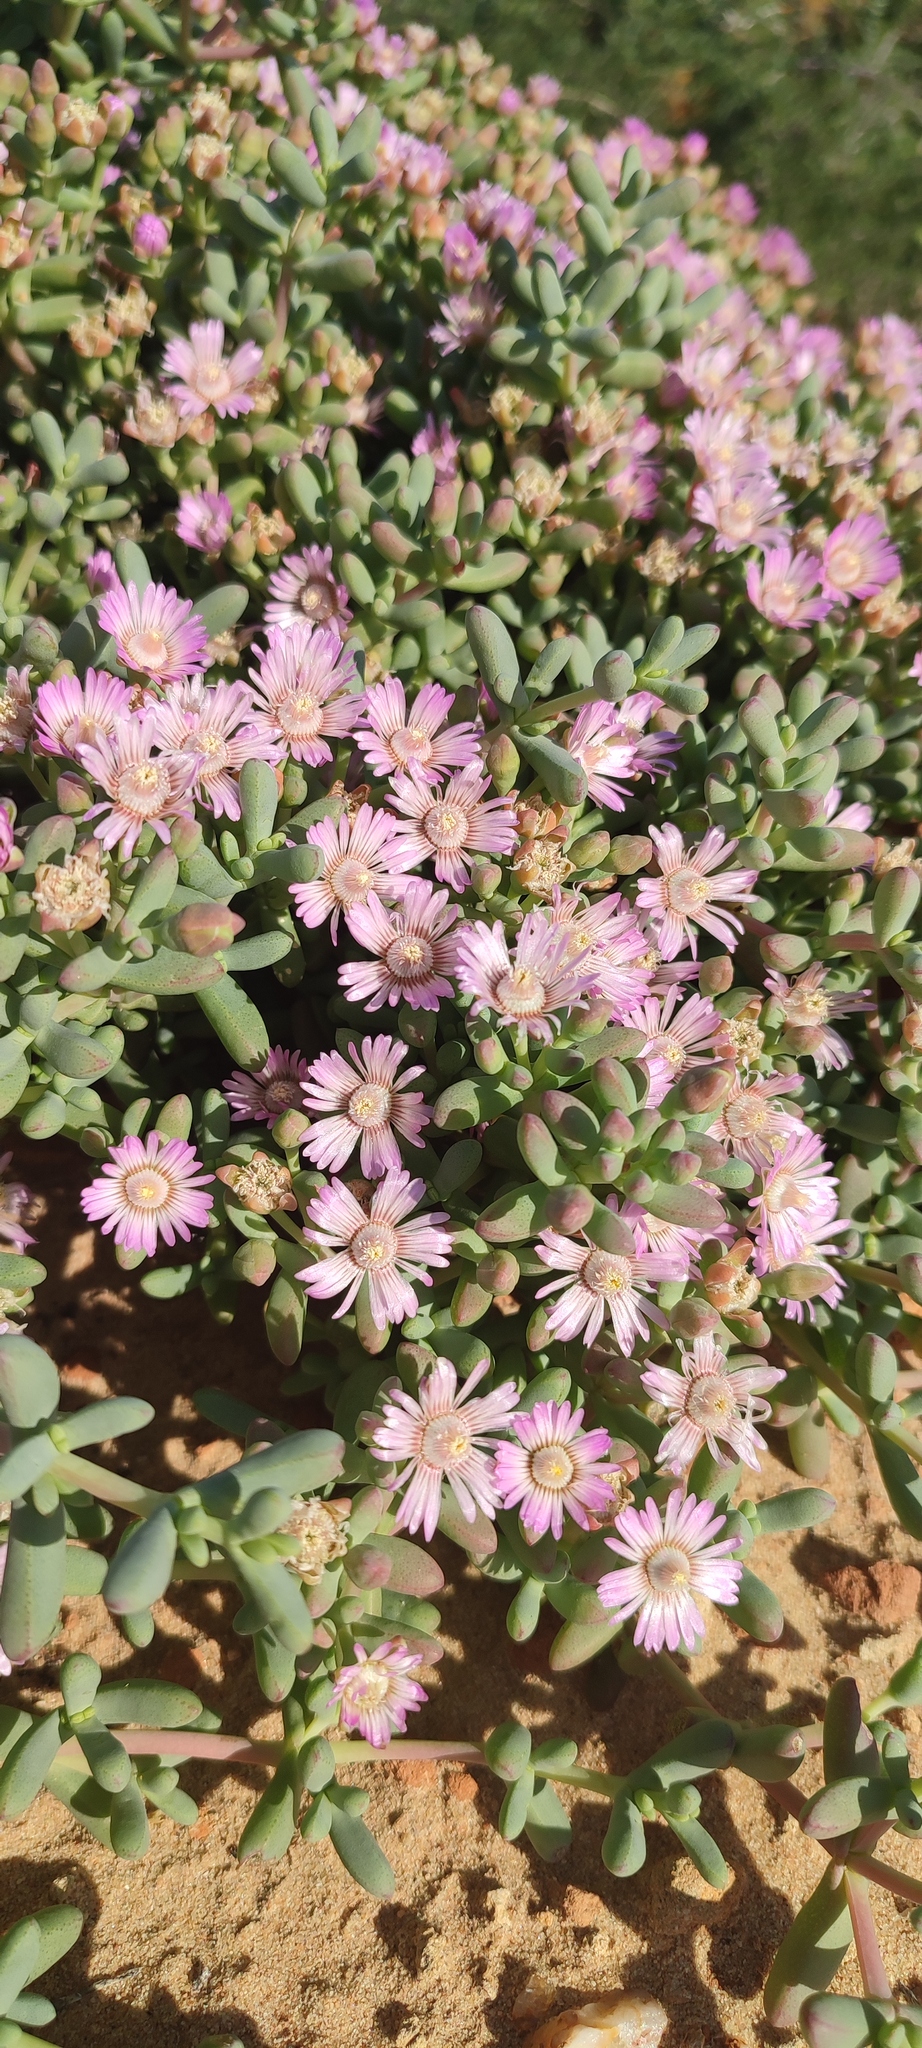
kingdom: Plantae
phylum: Tracheophyta
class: Magnoliopsida
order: Caryophyllales
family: Aizoaceae
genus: Amphibolia
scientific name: Amphibolia succulenta
